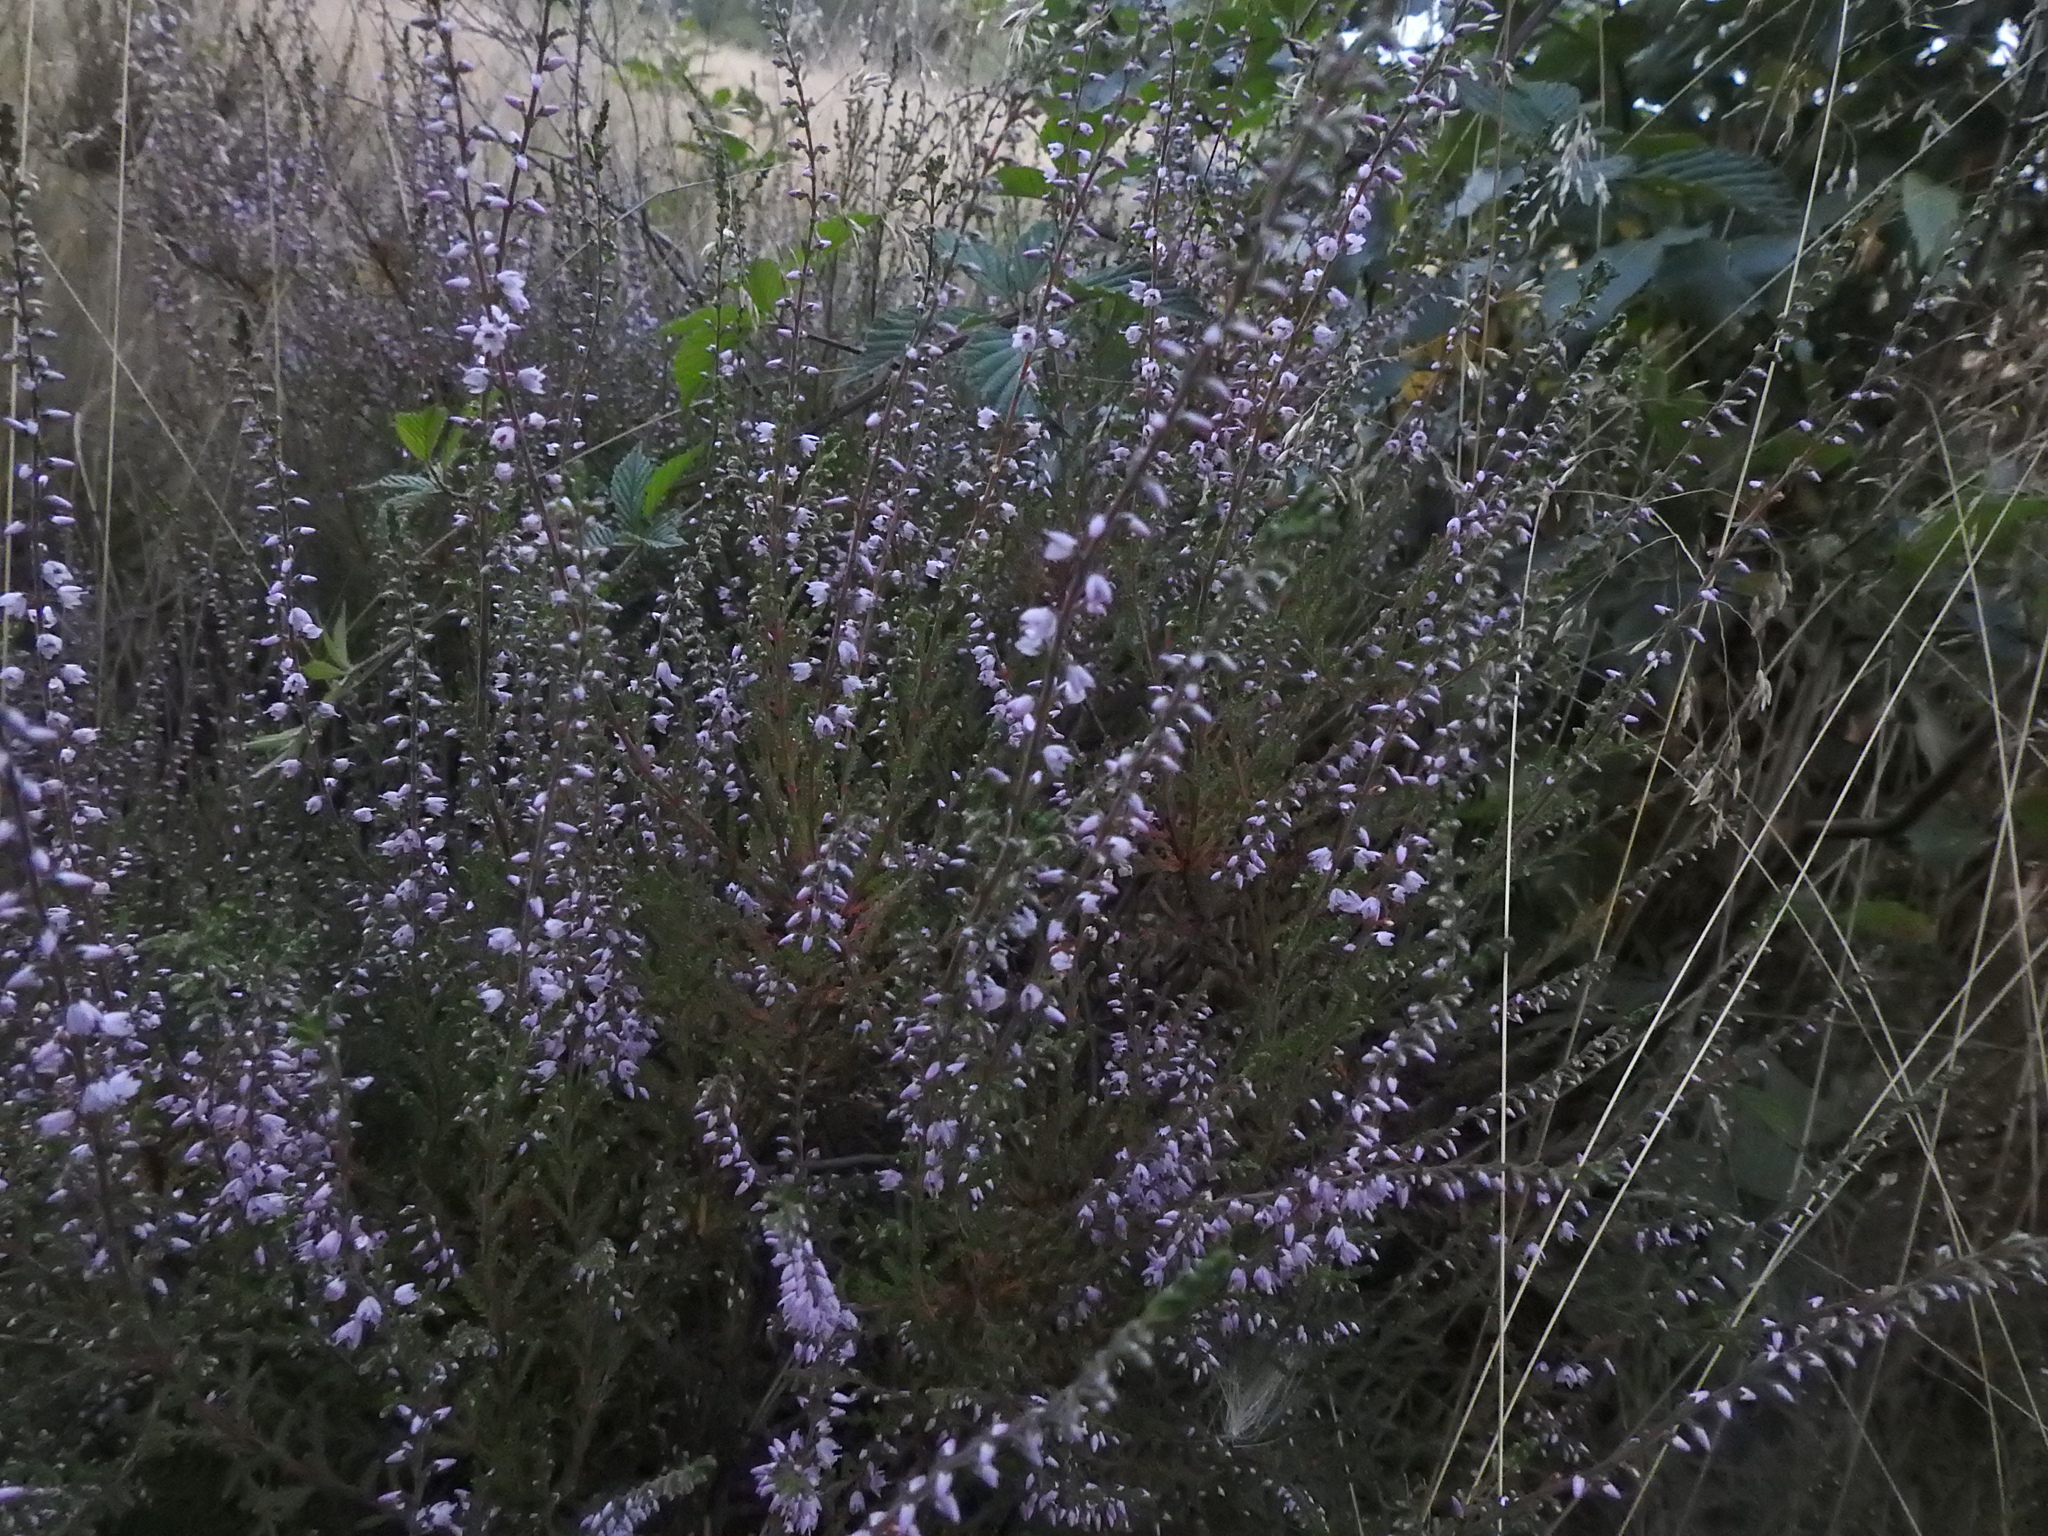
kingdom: Plantae
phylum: Tracheophyta
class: Magnoliopsida
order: Ericales
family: Ericaceae
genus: Calluna
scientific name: Calluna vulgaris
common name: Heather
